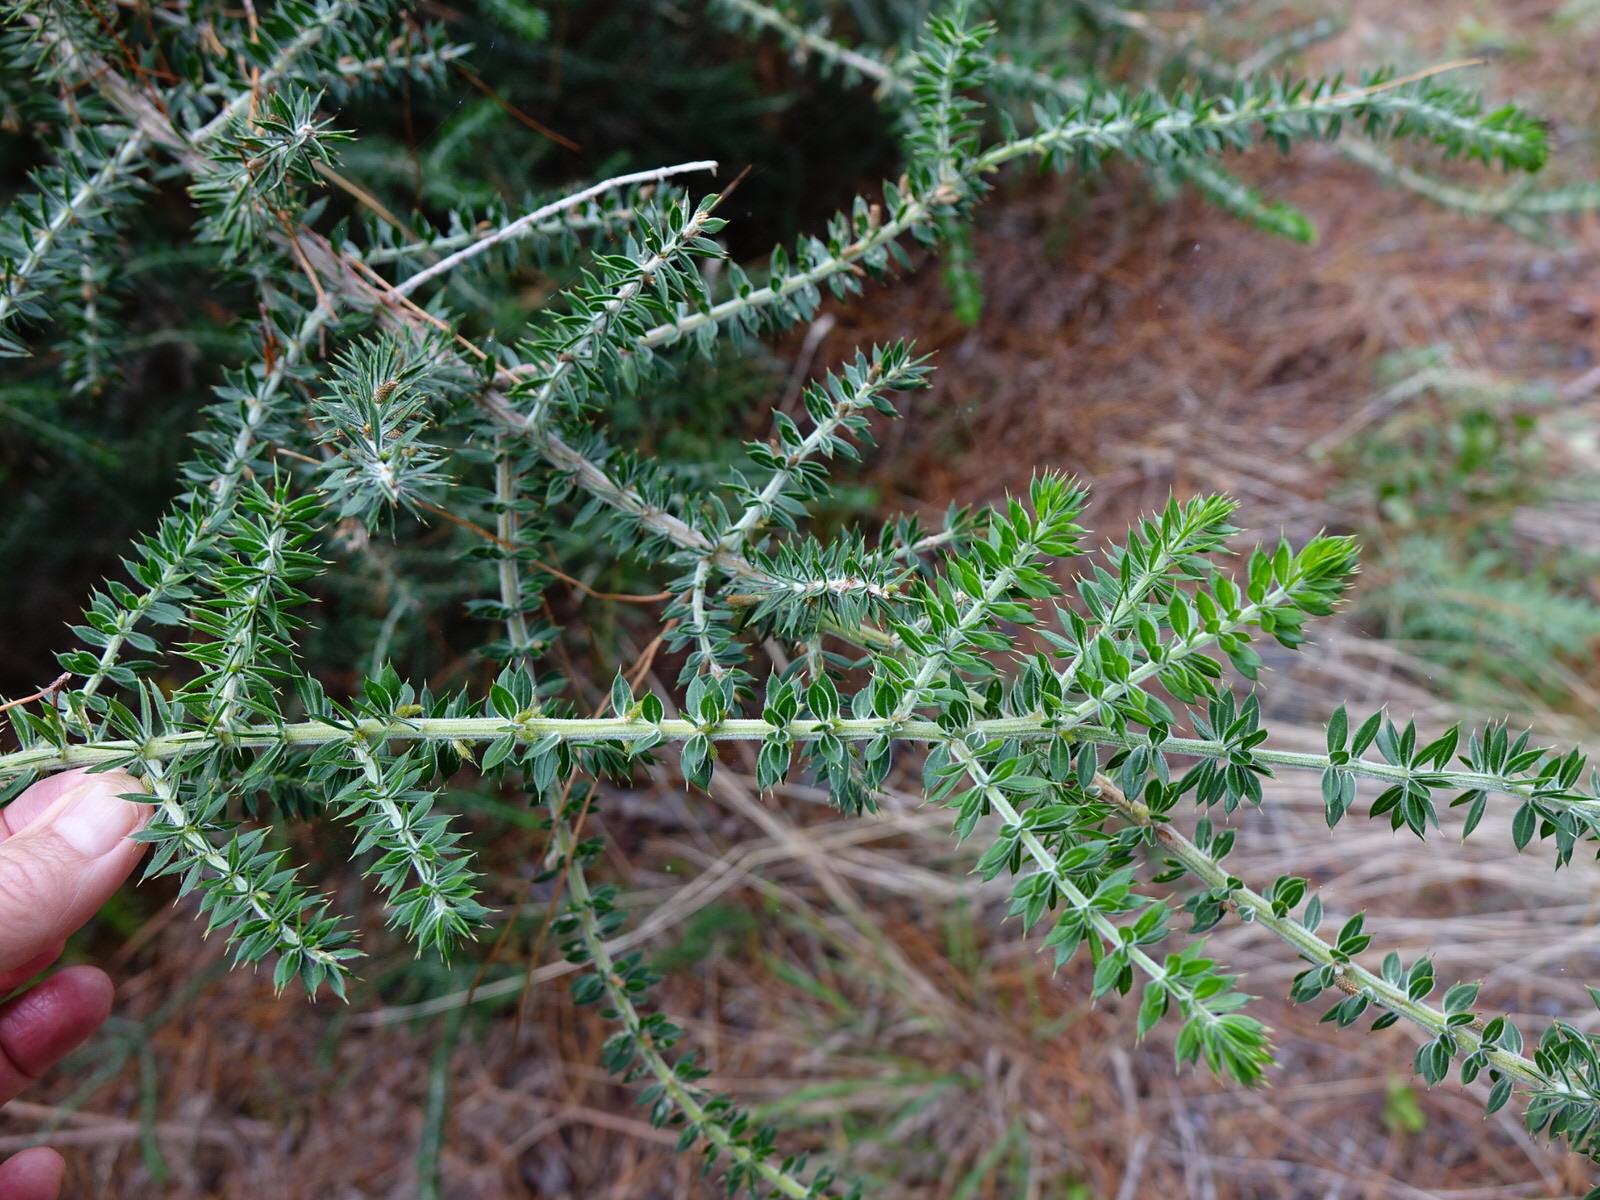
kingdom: Plantae
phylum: Tracheophyta
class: Magnoliopsida
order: Fabales
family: Fabaceae
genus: Acacia
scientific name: Acacia verticillata
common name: Prickly moses
